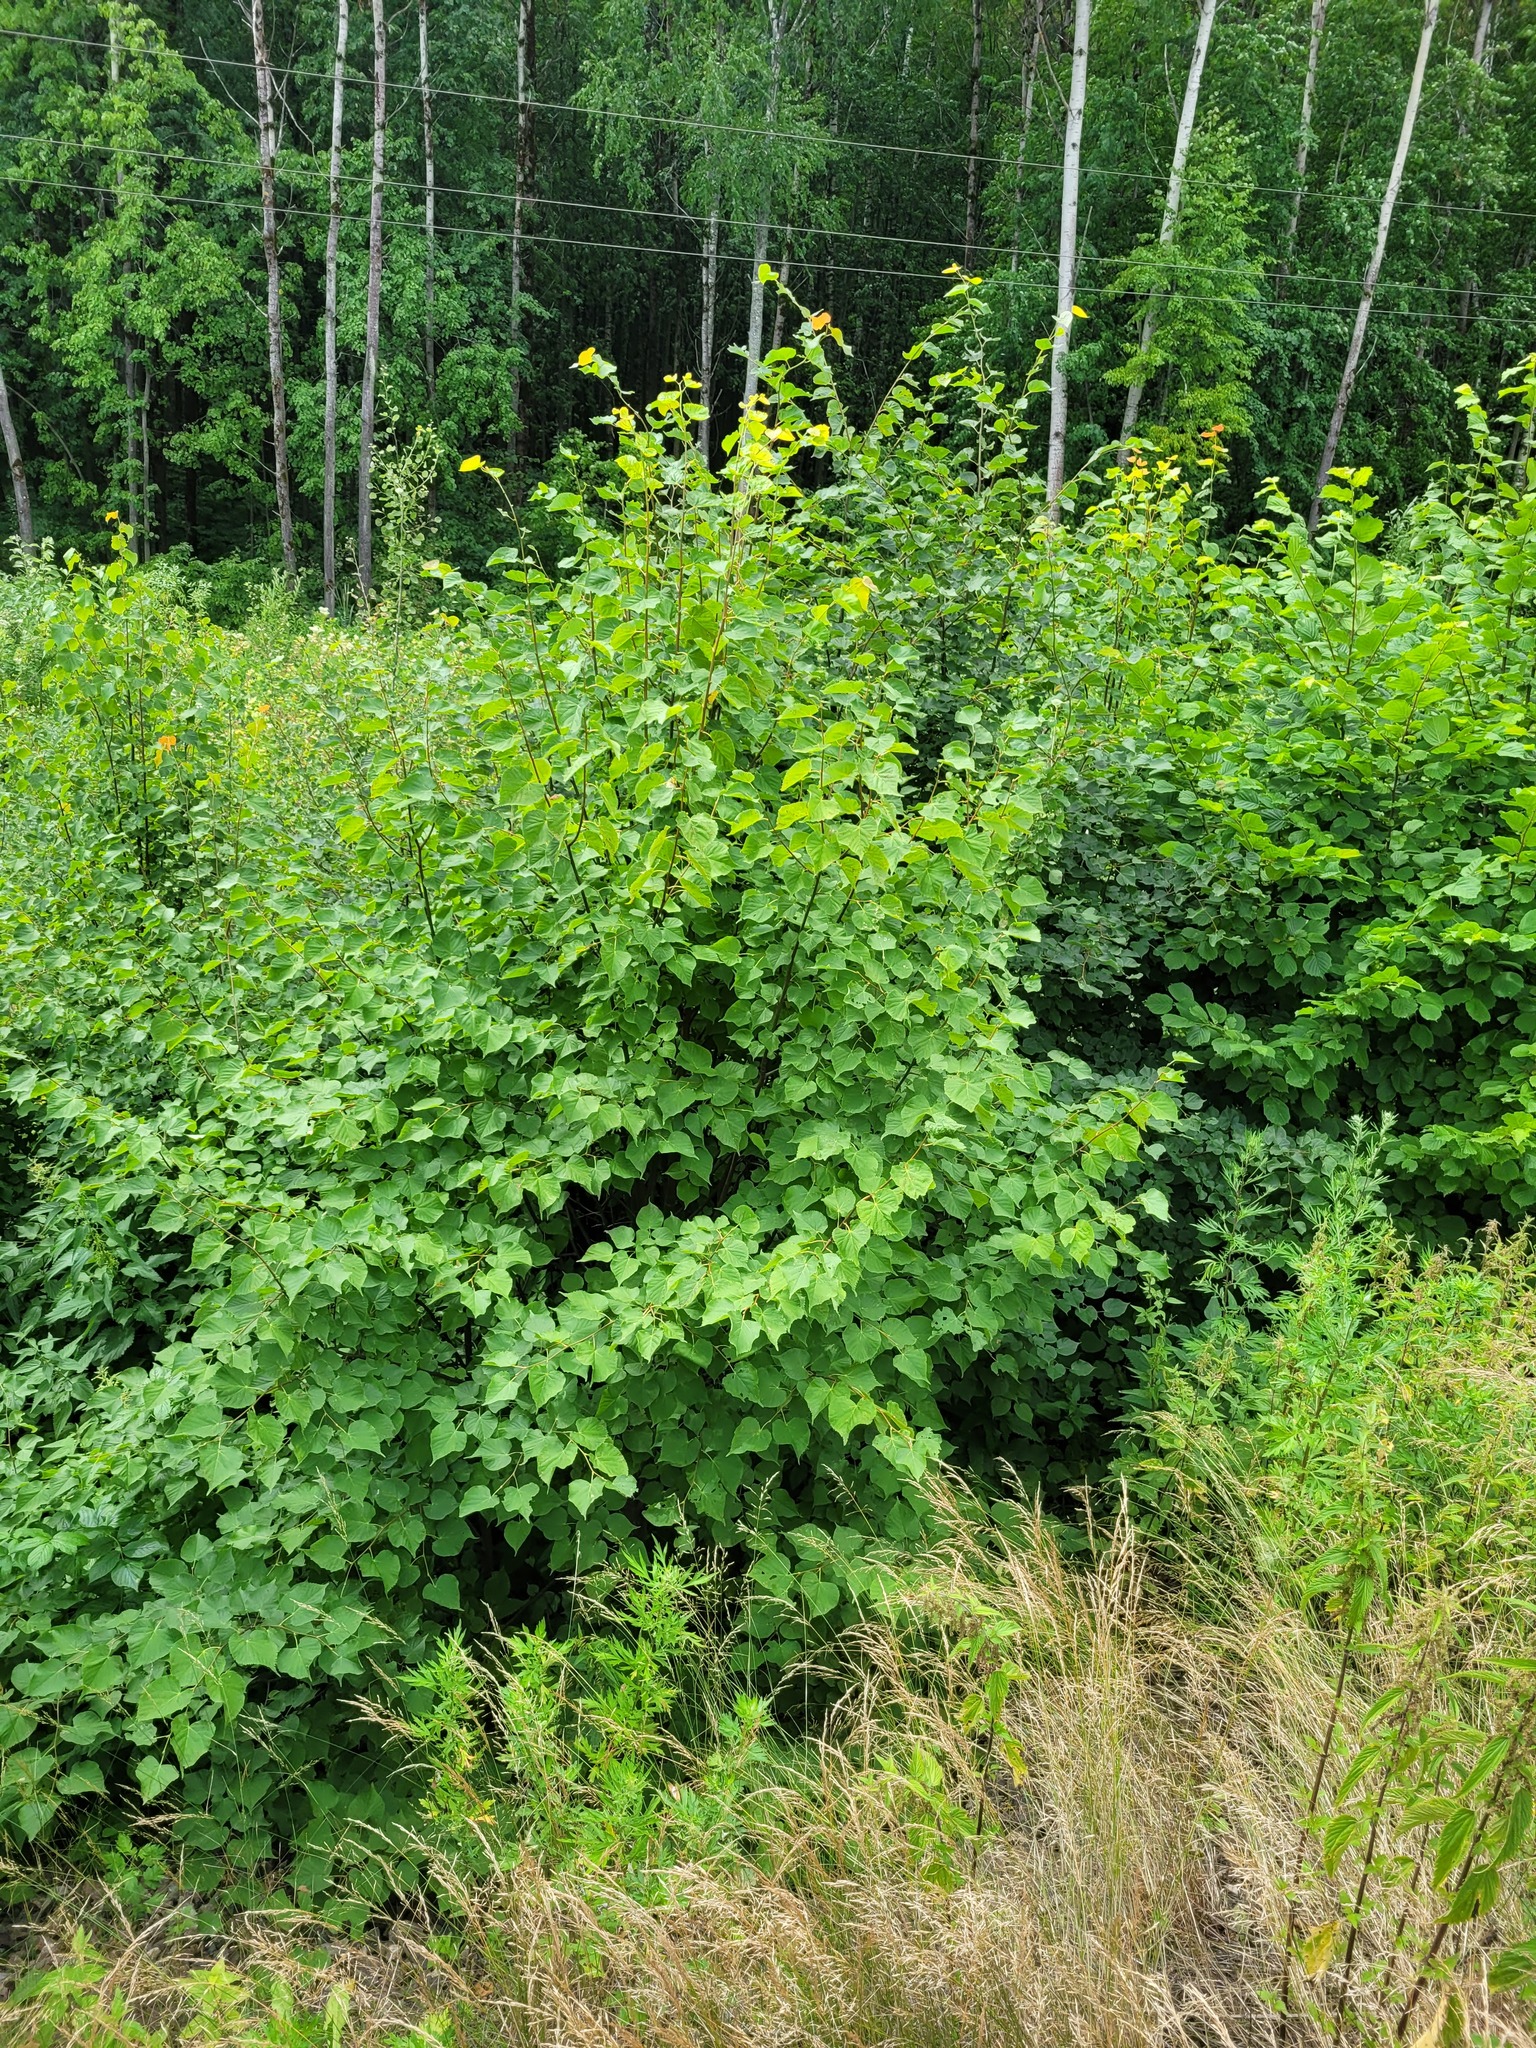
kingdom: Plantae
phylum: Tracheophyta
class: Magnoliopsida
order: Malvales
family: Malvaceae
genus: Tilia
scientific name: Tilia cordata
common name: Small-leaved lime
